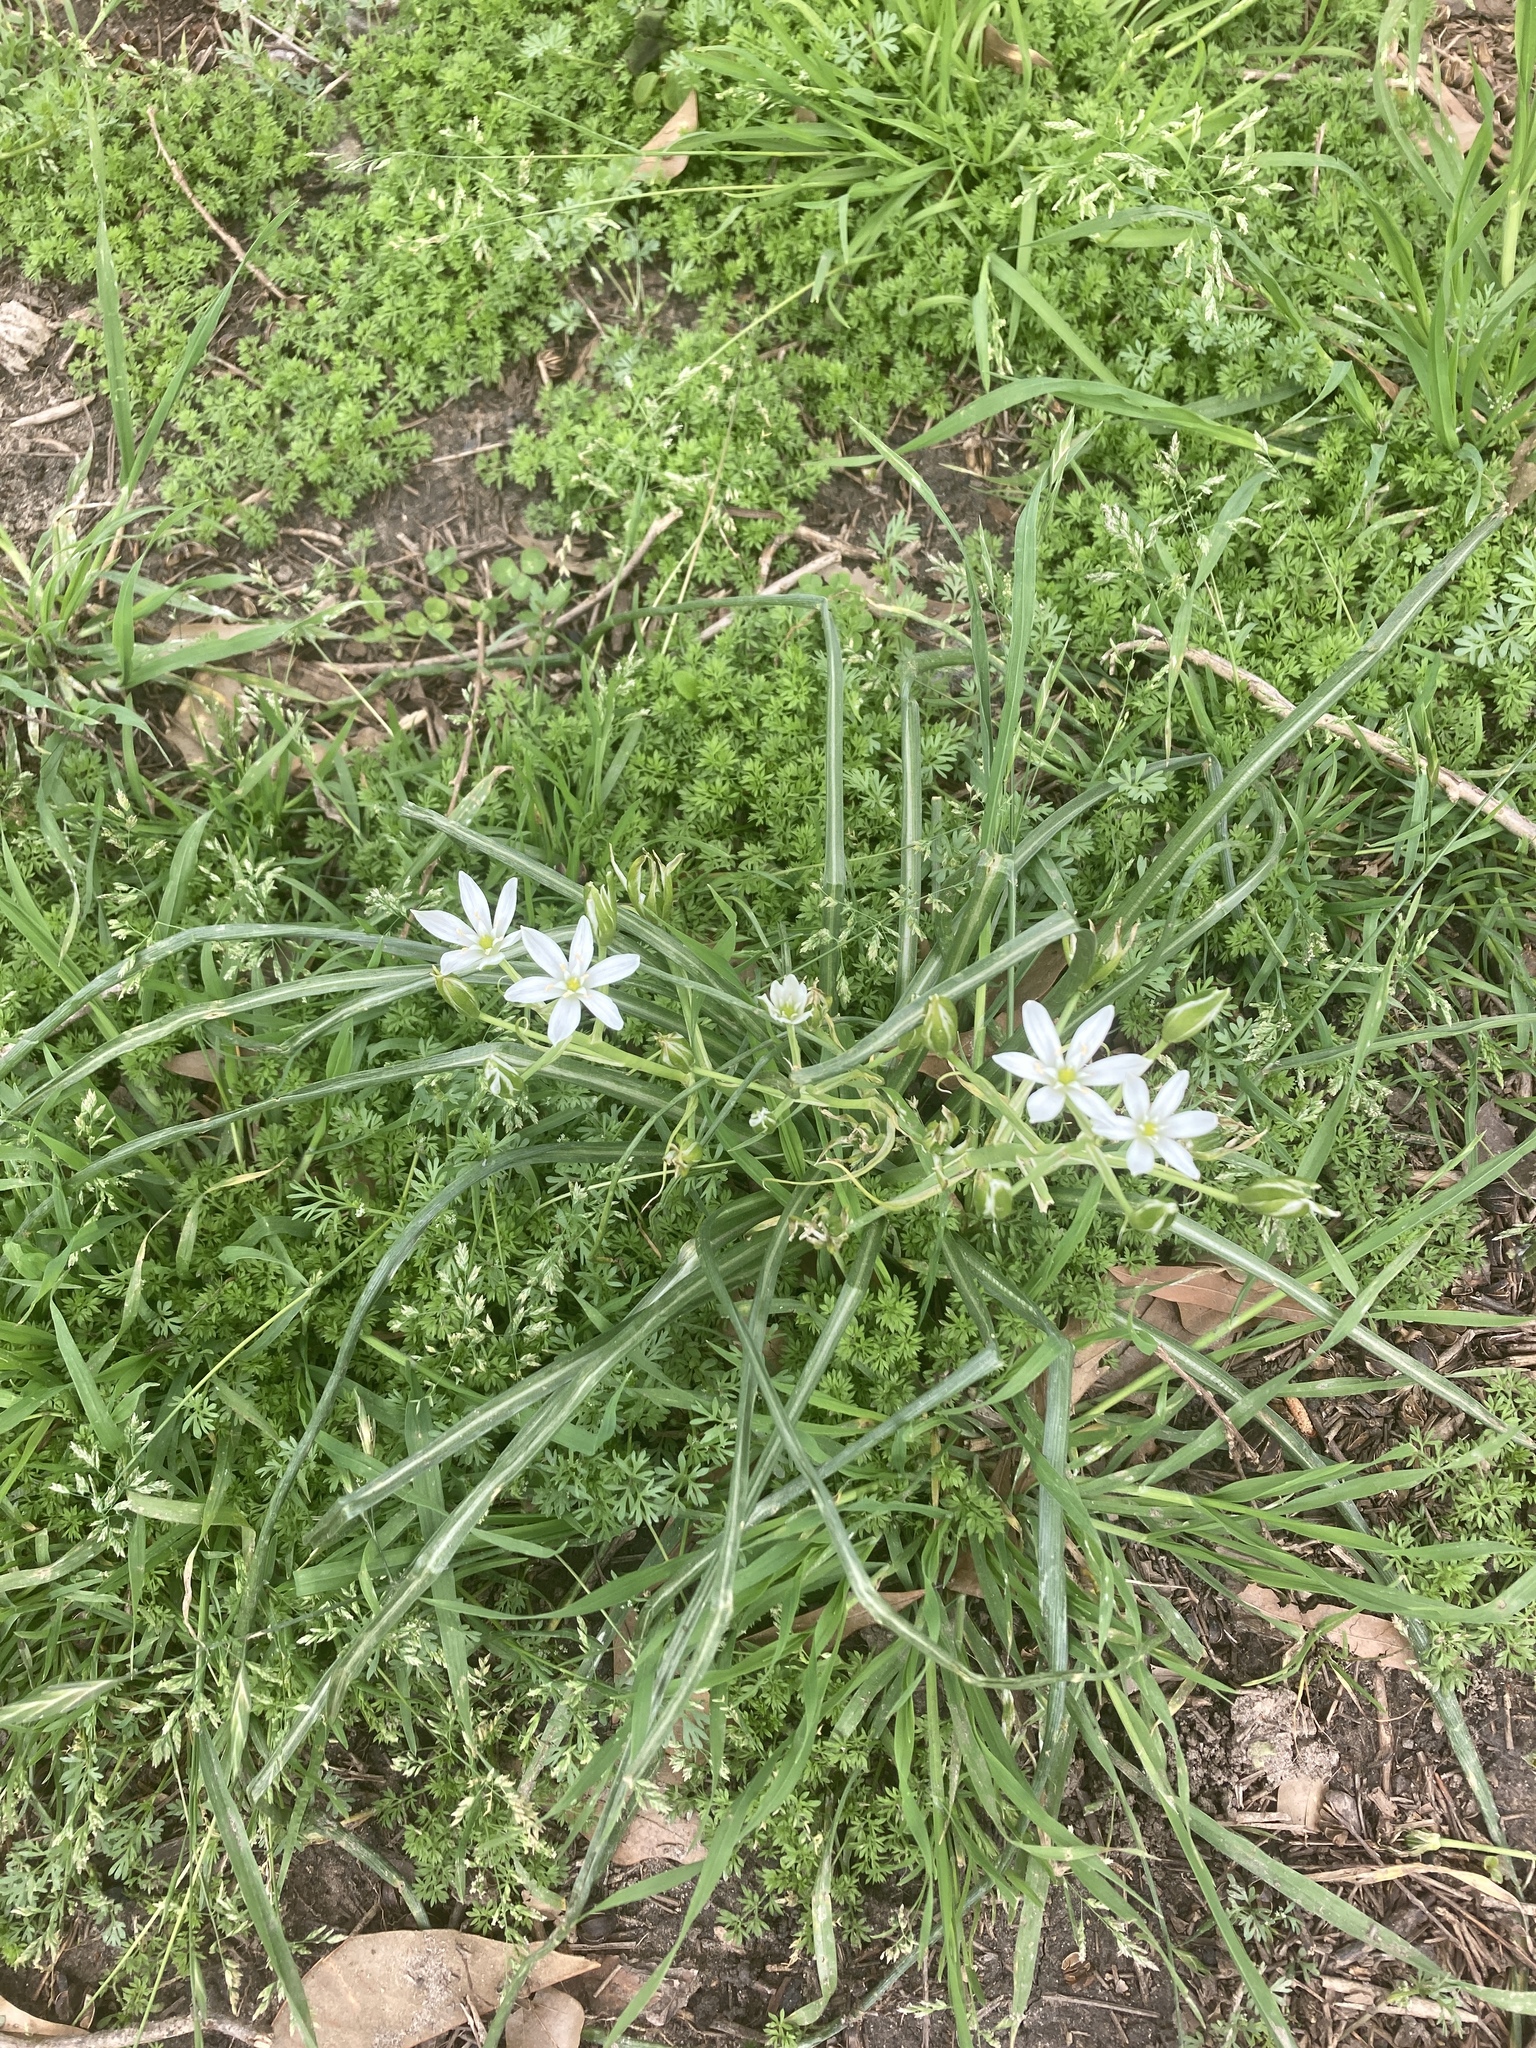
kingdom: Plantae
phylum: Tracheophyta
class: Liliopsida
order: Asparagales
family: Asparagaceae
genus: Ornithogalum
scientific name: Ornithogalum umbellatum
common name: Garden star-of-bethlehem
